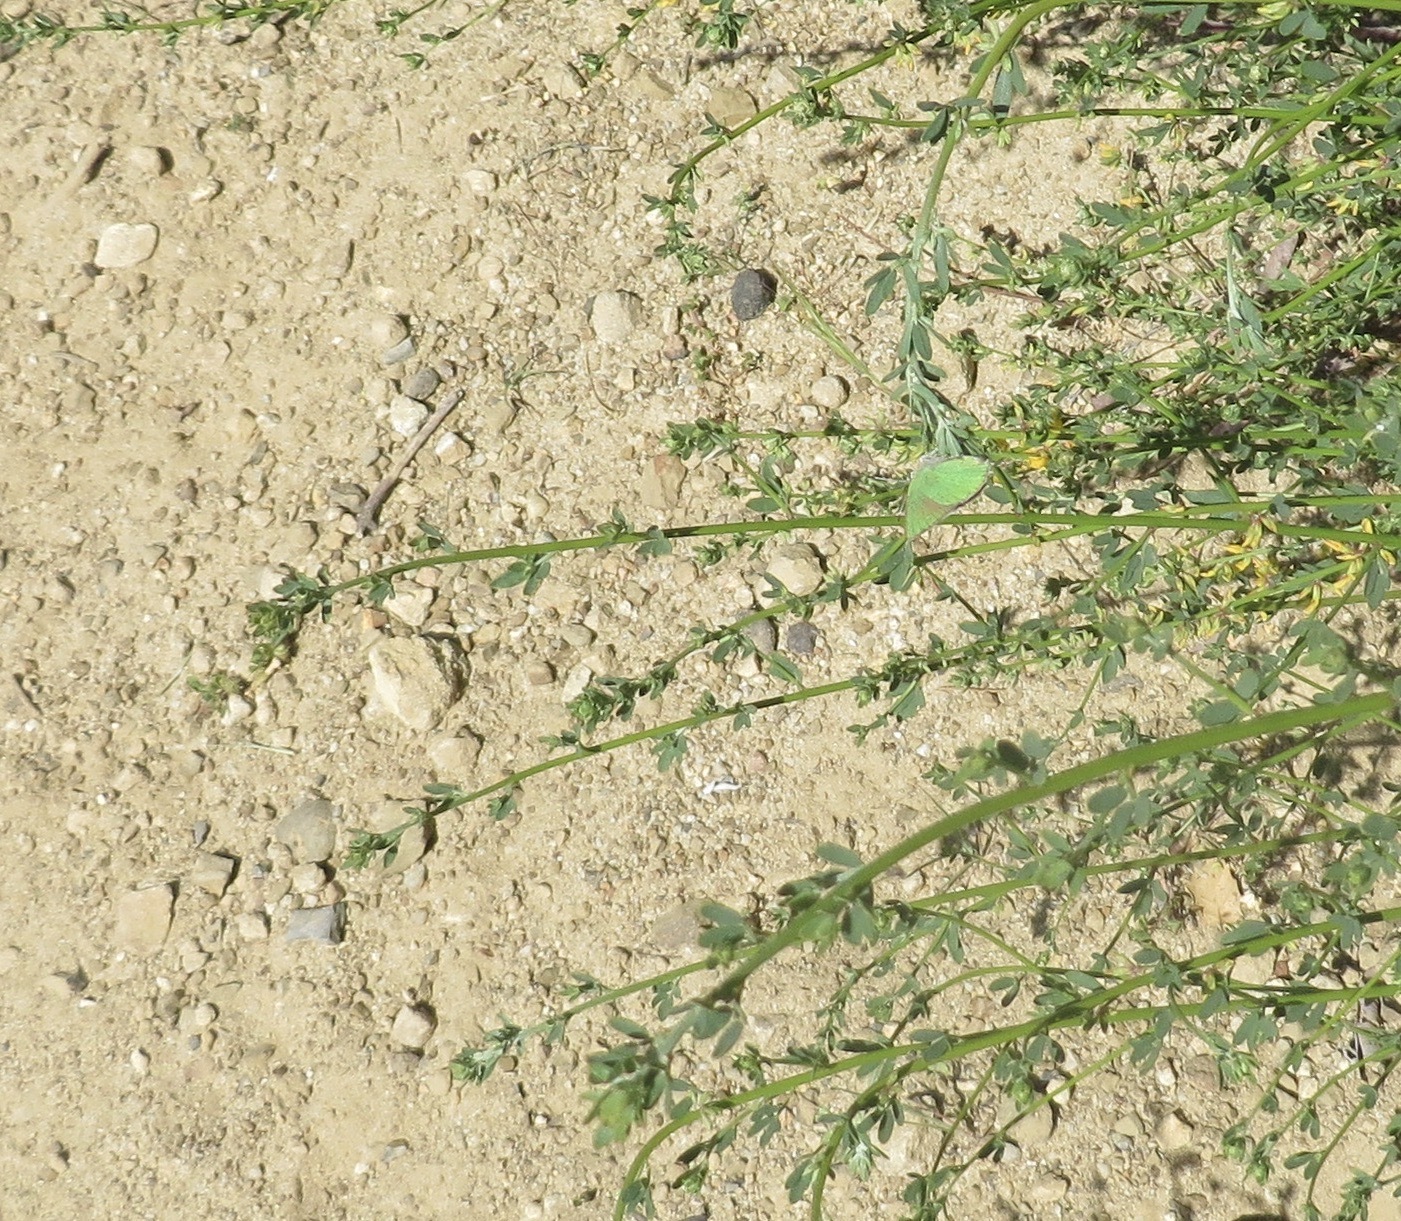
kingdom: Animalia
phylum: Arthropoda
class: Insecta
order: Lepidoptera
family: Lycaenidae
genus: Callophrys
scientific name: Callophrys dumetorum
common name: Bramble hairstreak
